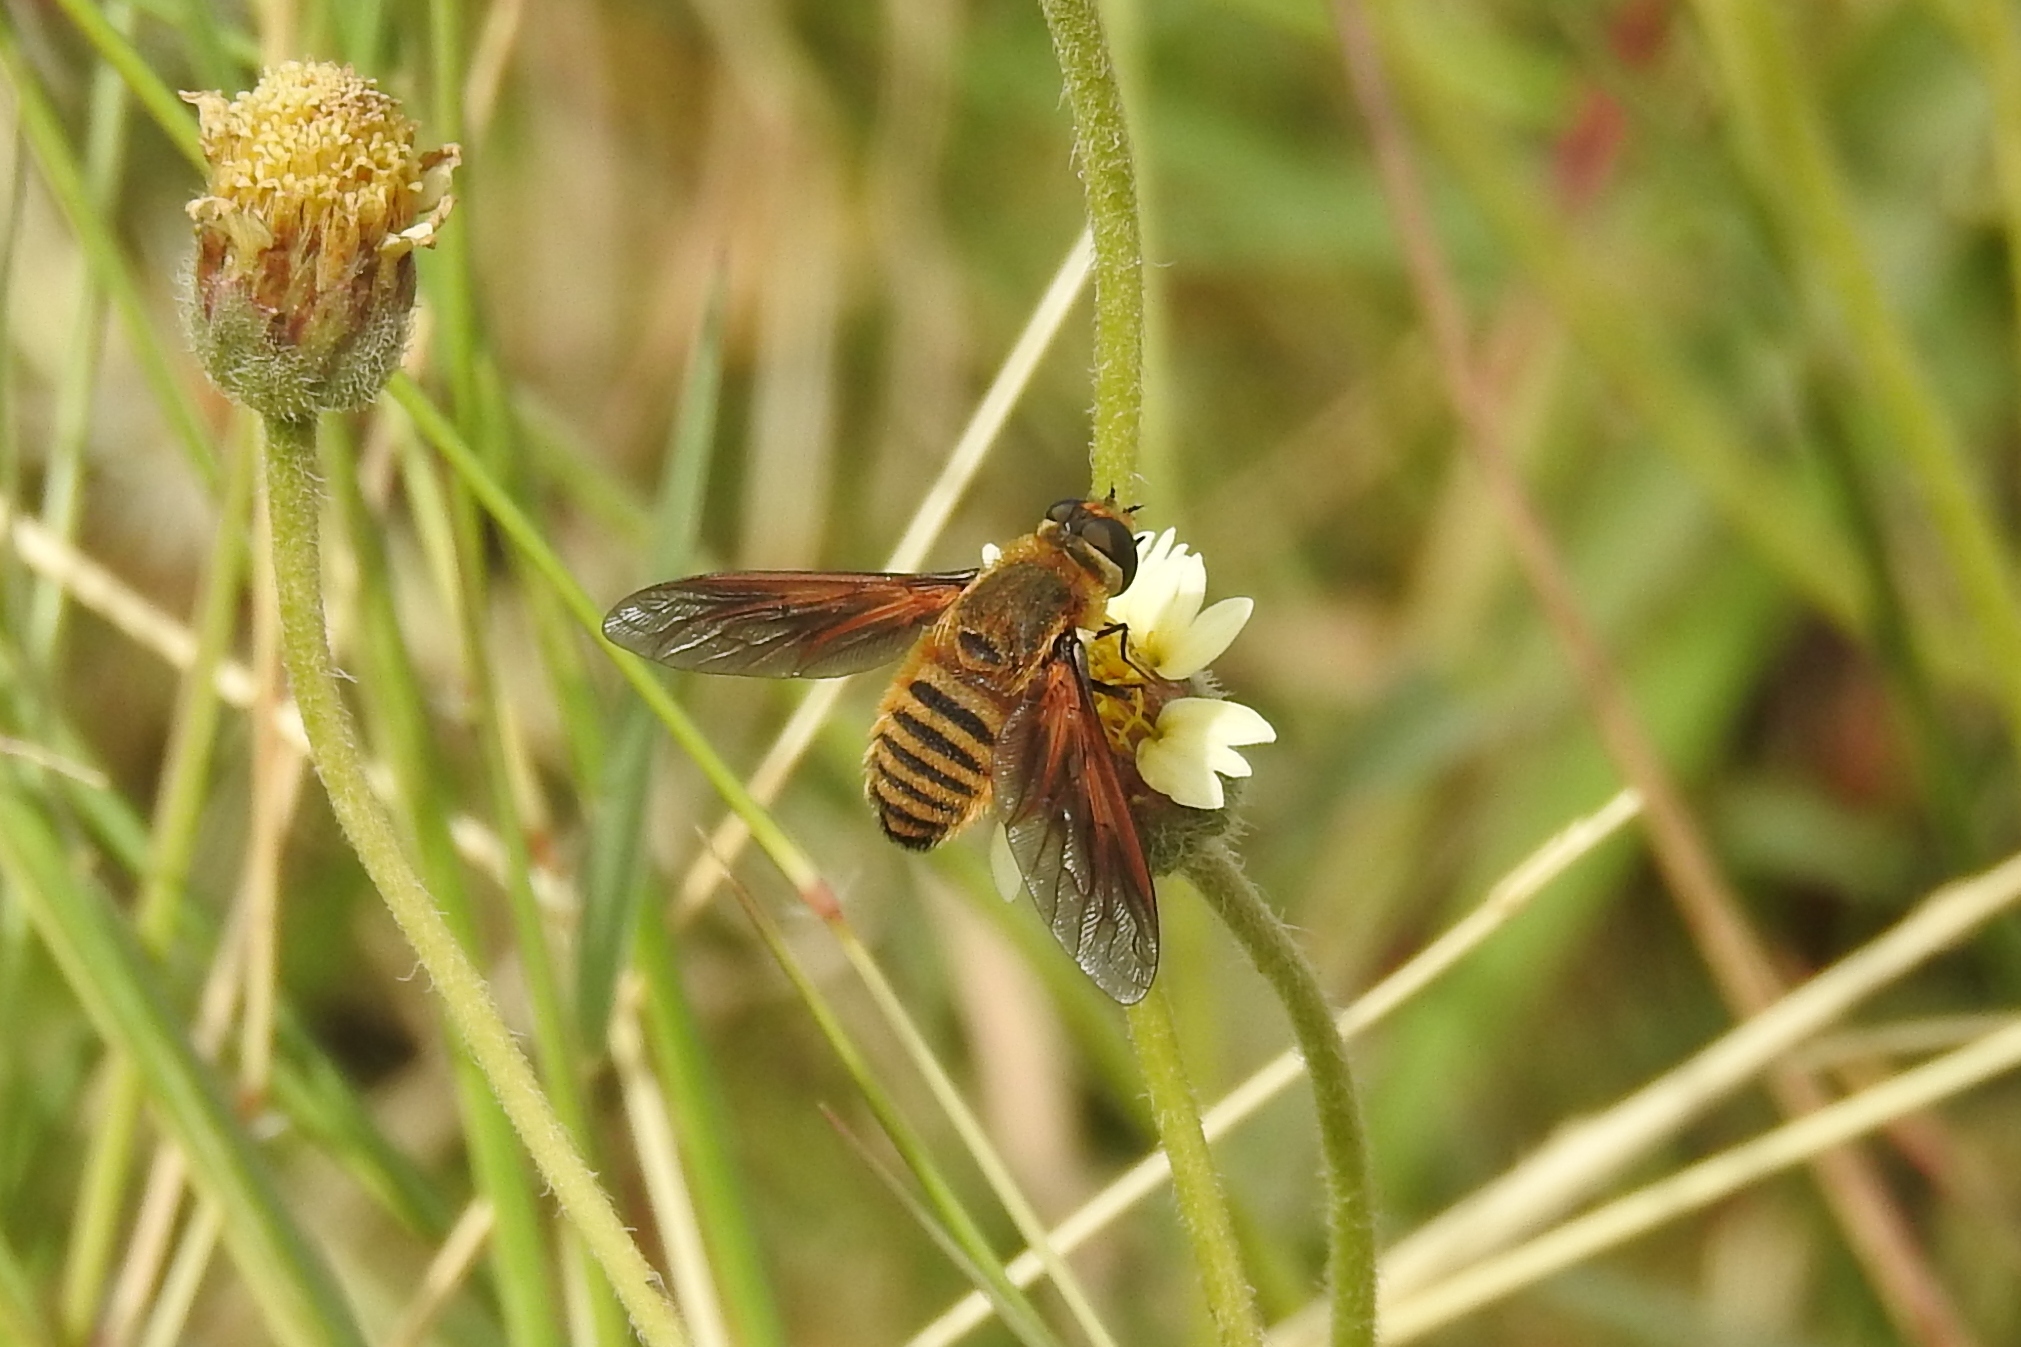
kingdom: Animalia
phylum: Arthropoda
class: Insecta
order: Diptera
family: Bombyliidae
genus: Poecilanthrax
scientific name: Poecilanthrax lucifer
